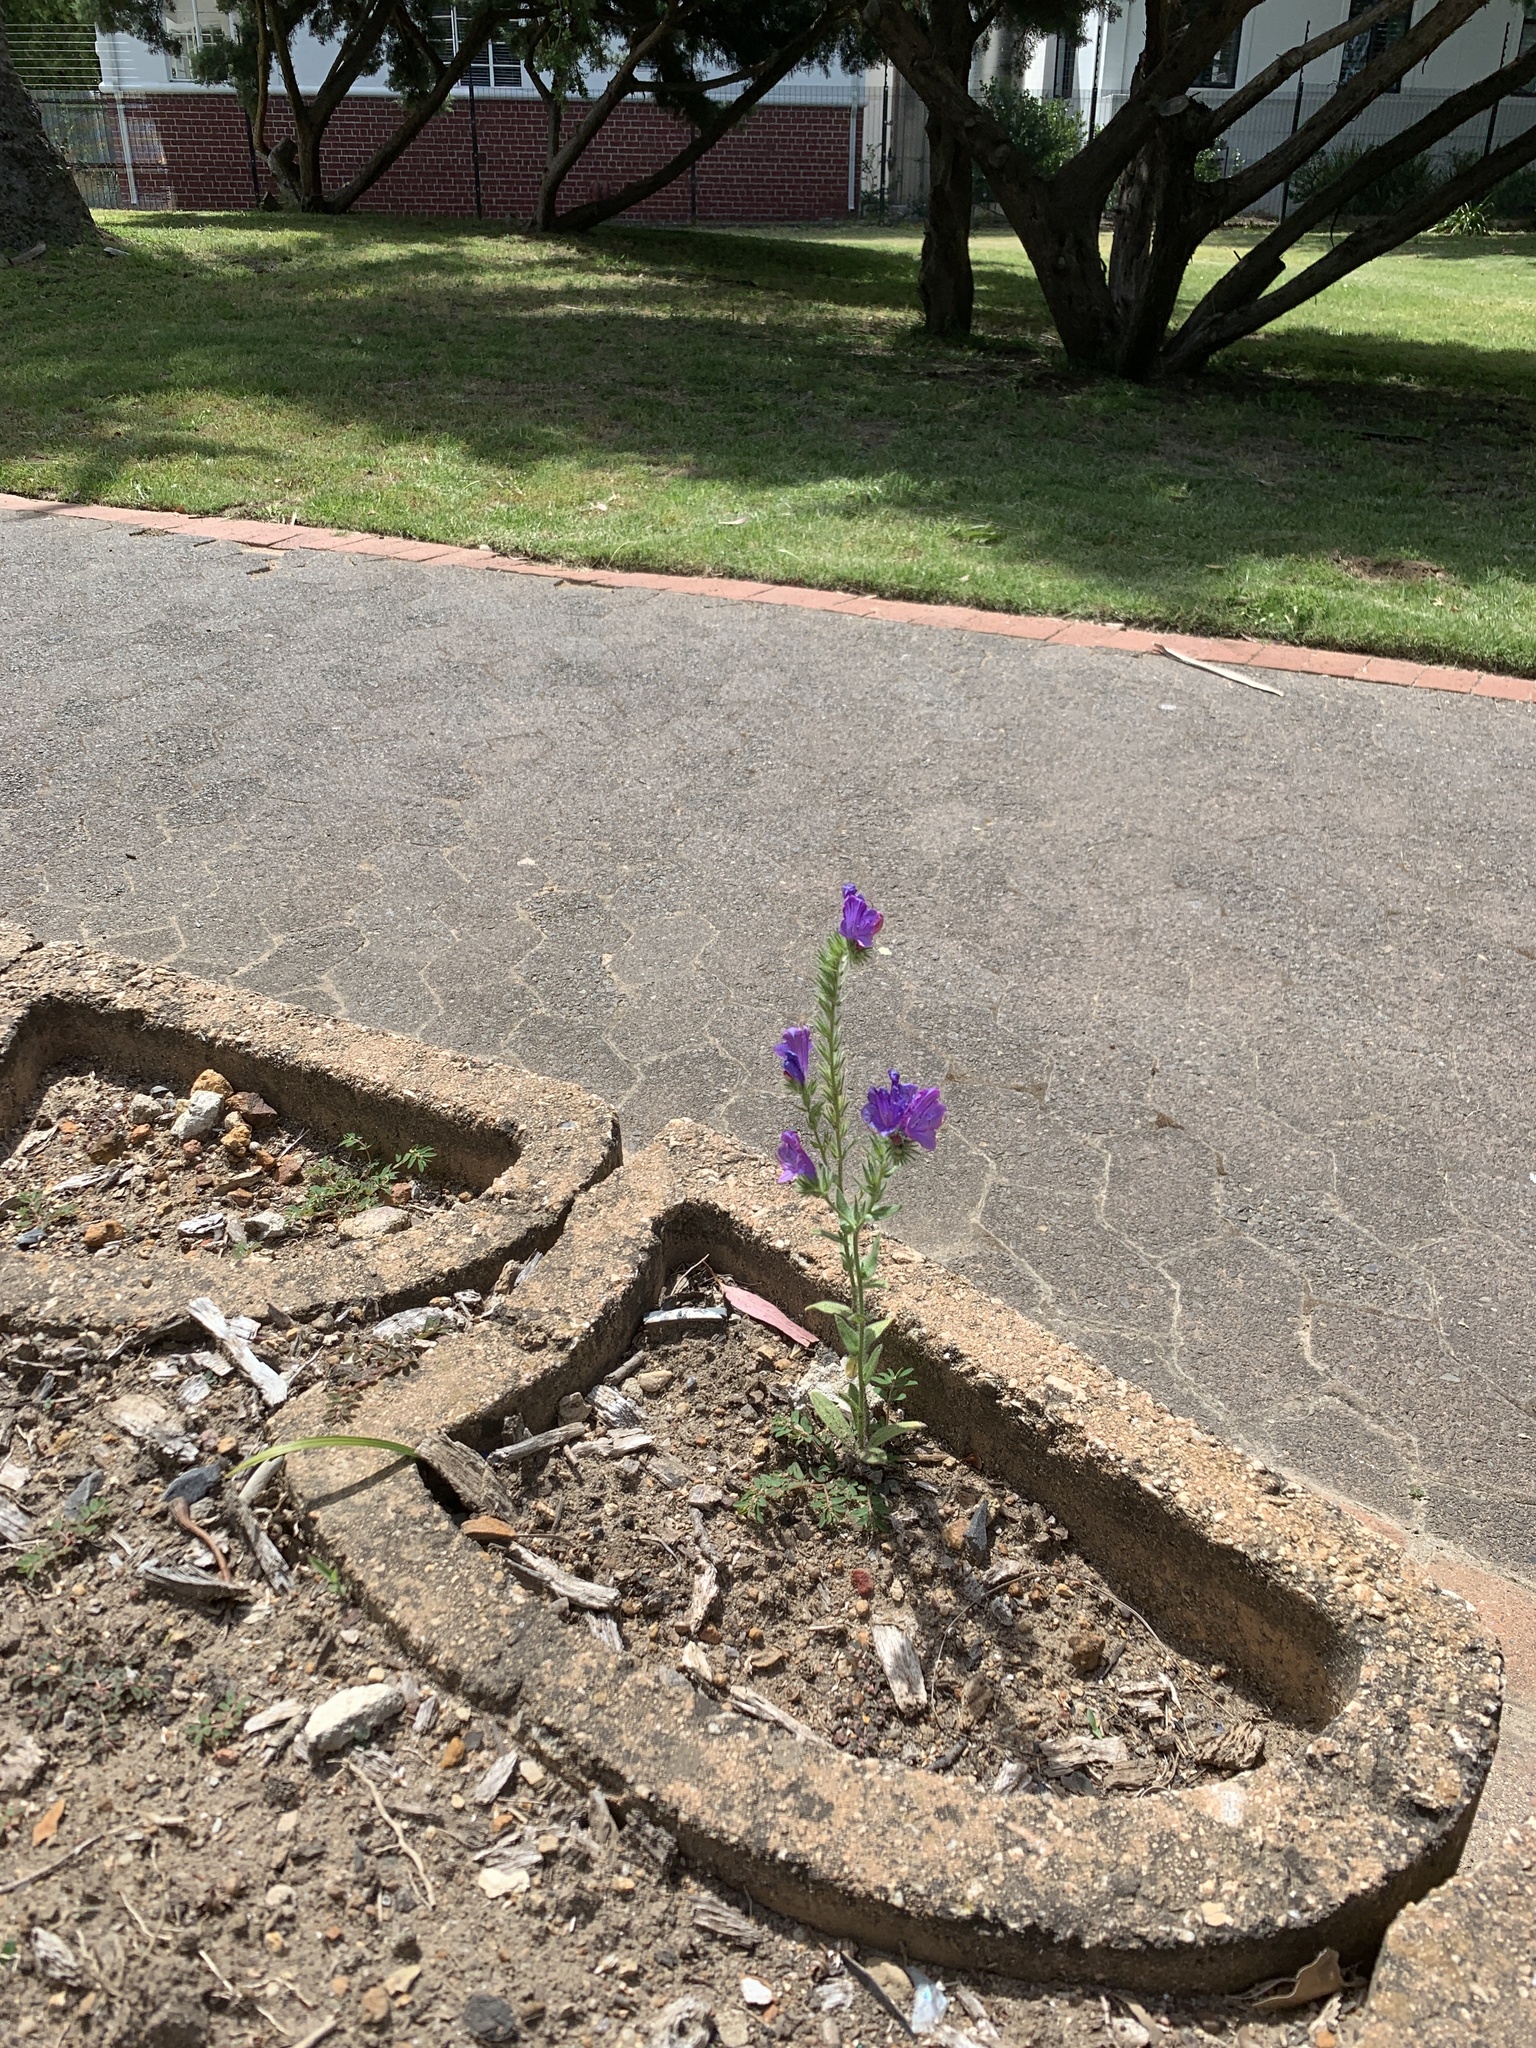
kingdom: Plantae
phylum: Tracheophyta
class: Magnoliopsida
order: Boraginales
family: Boraginaceae
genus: Echium
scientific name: Echium plantagineum
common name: Purple viper's-bugloss
